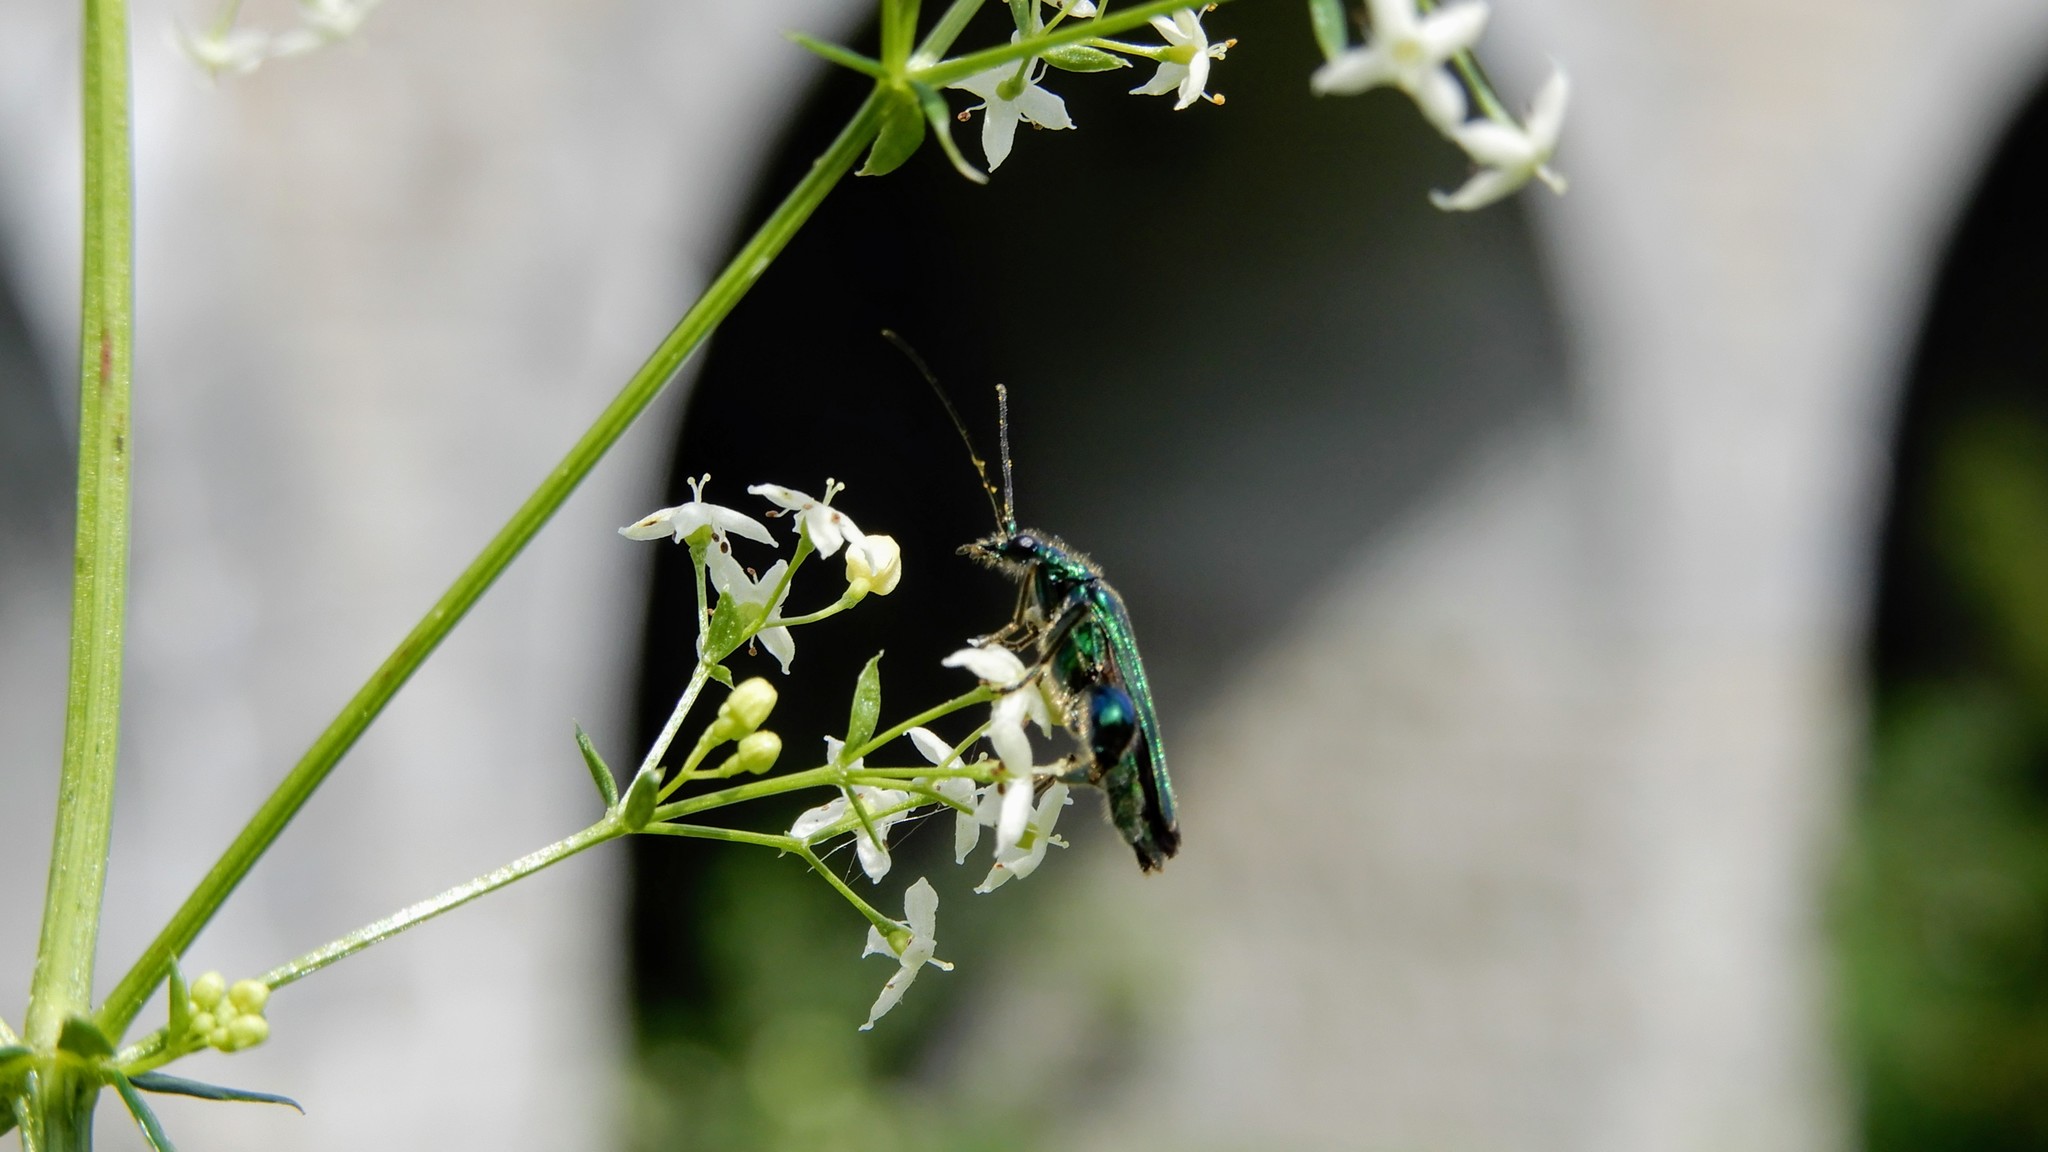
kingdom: Animalia
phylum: Arthropoda
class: Insecta
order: Coleoptera
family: Oedemeridae
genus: Oedemera
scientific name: Oedemera nobilis
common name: Swollen-thighed beetle
